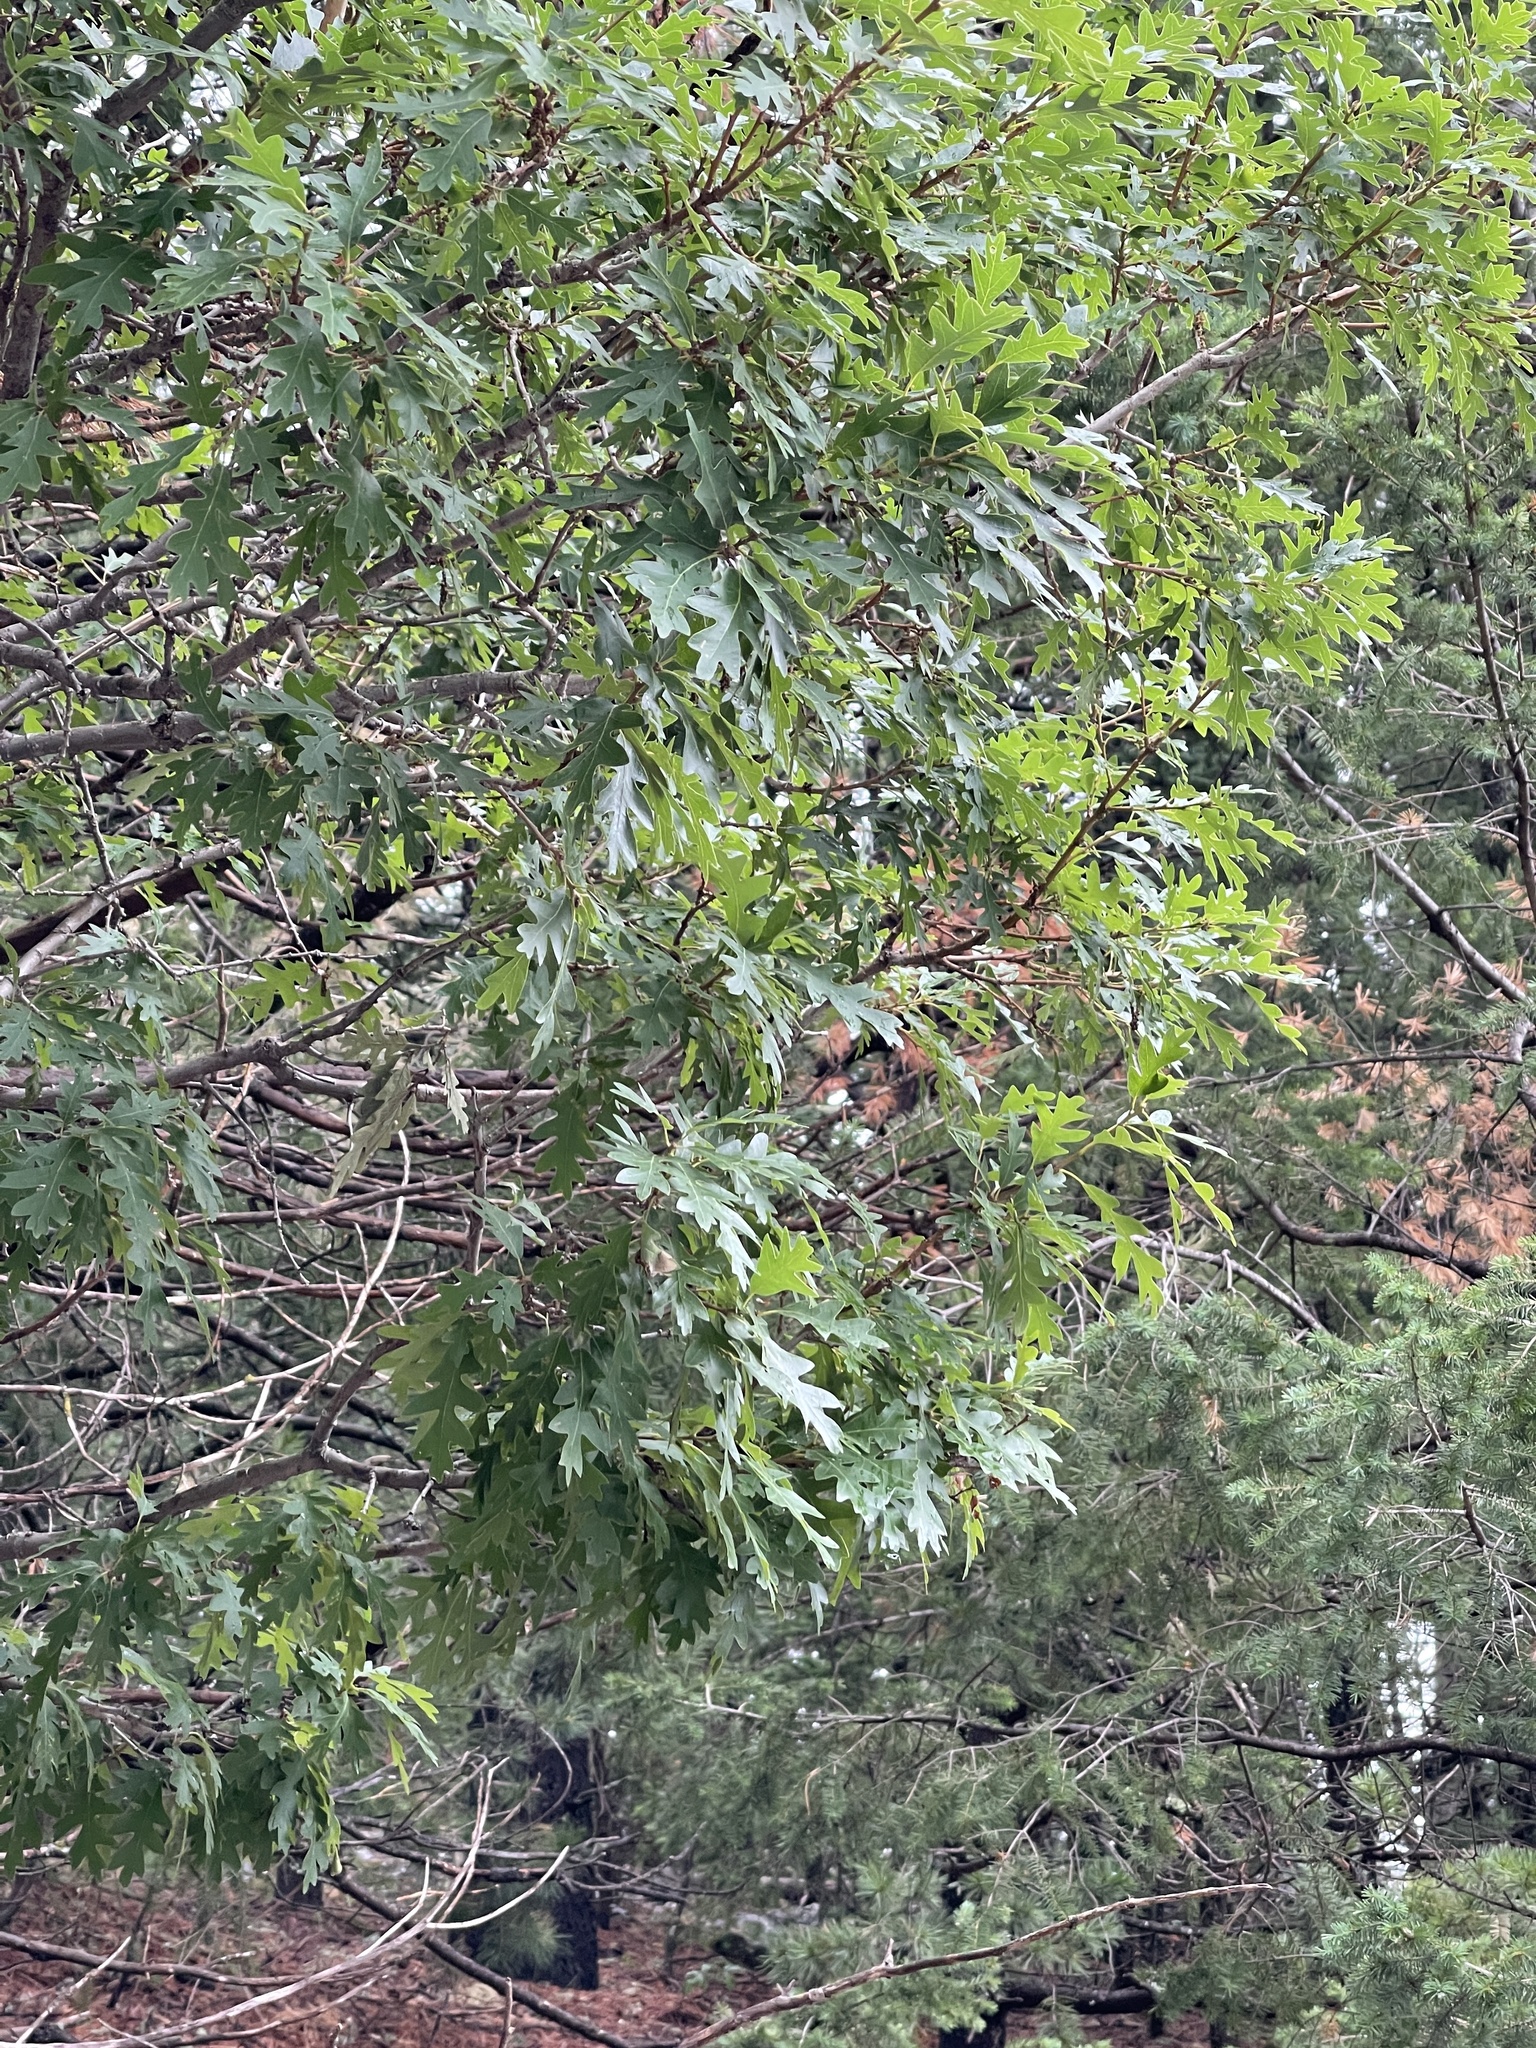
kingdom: Plantae
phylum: Tracheophyta
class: Magnoliopsida
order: Fagales
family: Fagaceae
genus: Quercus
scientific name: Quercus gambelii
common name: Gambel oak
